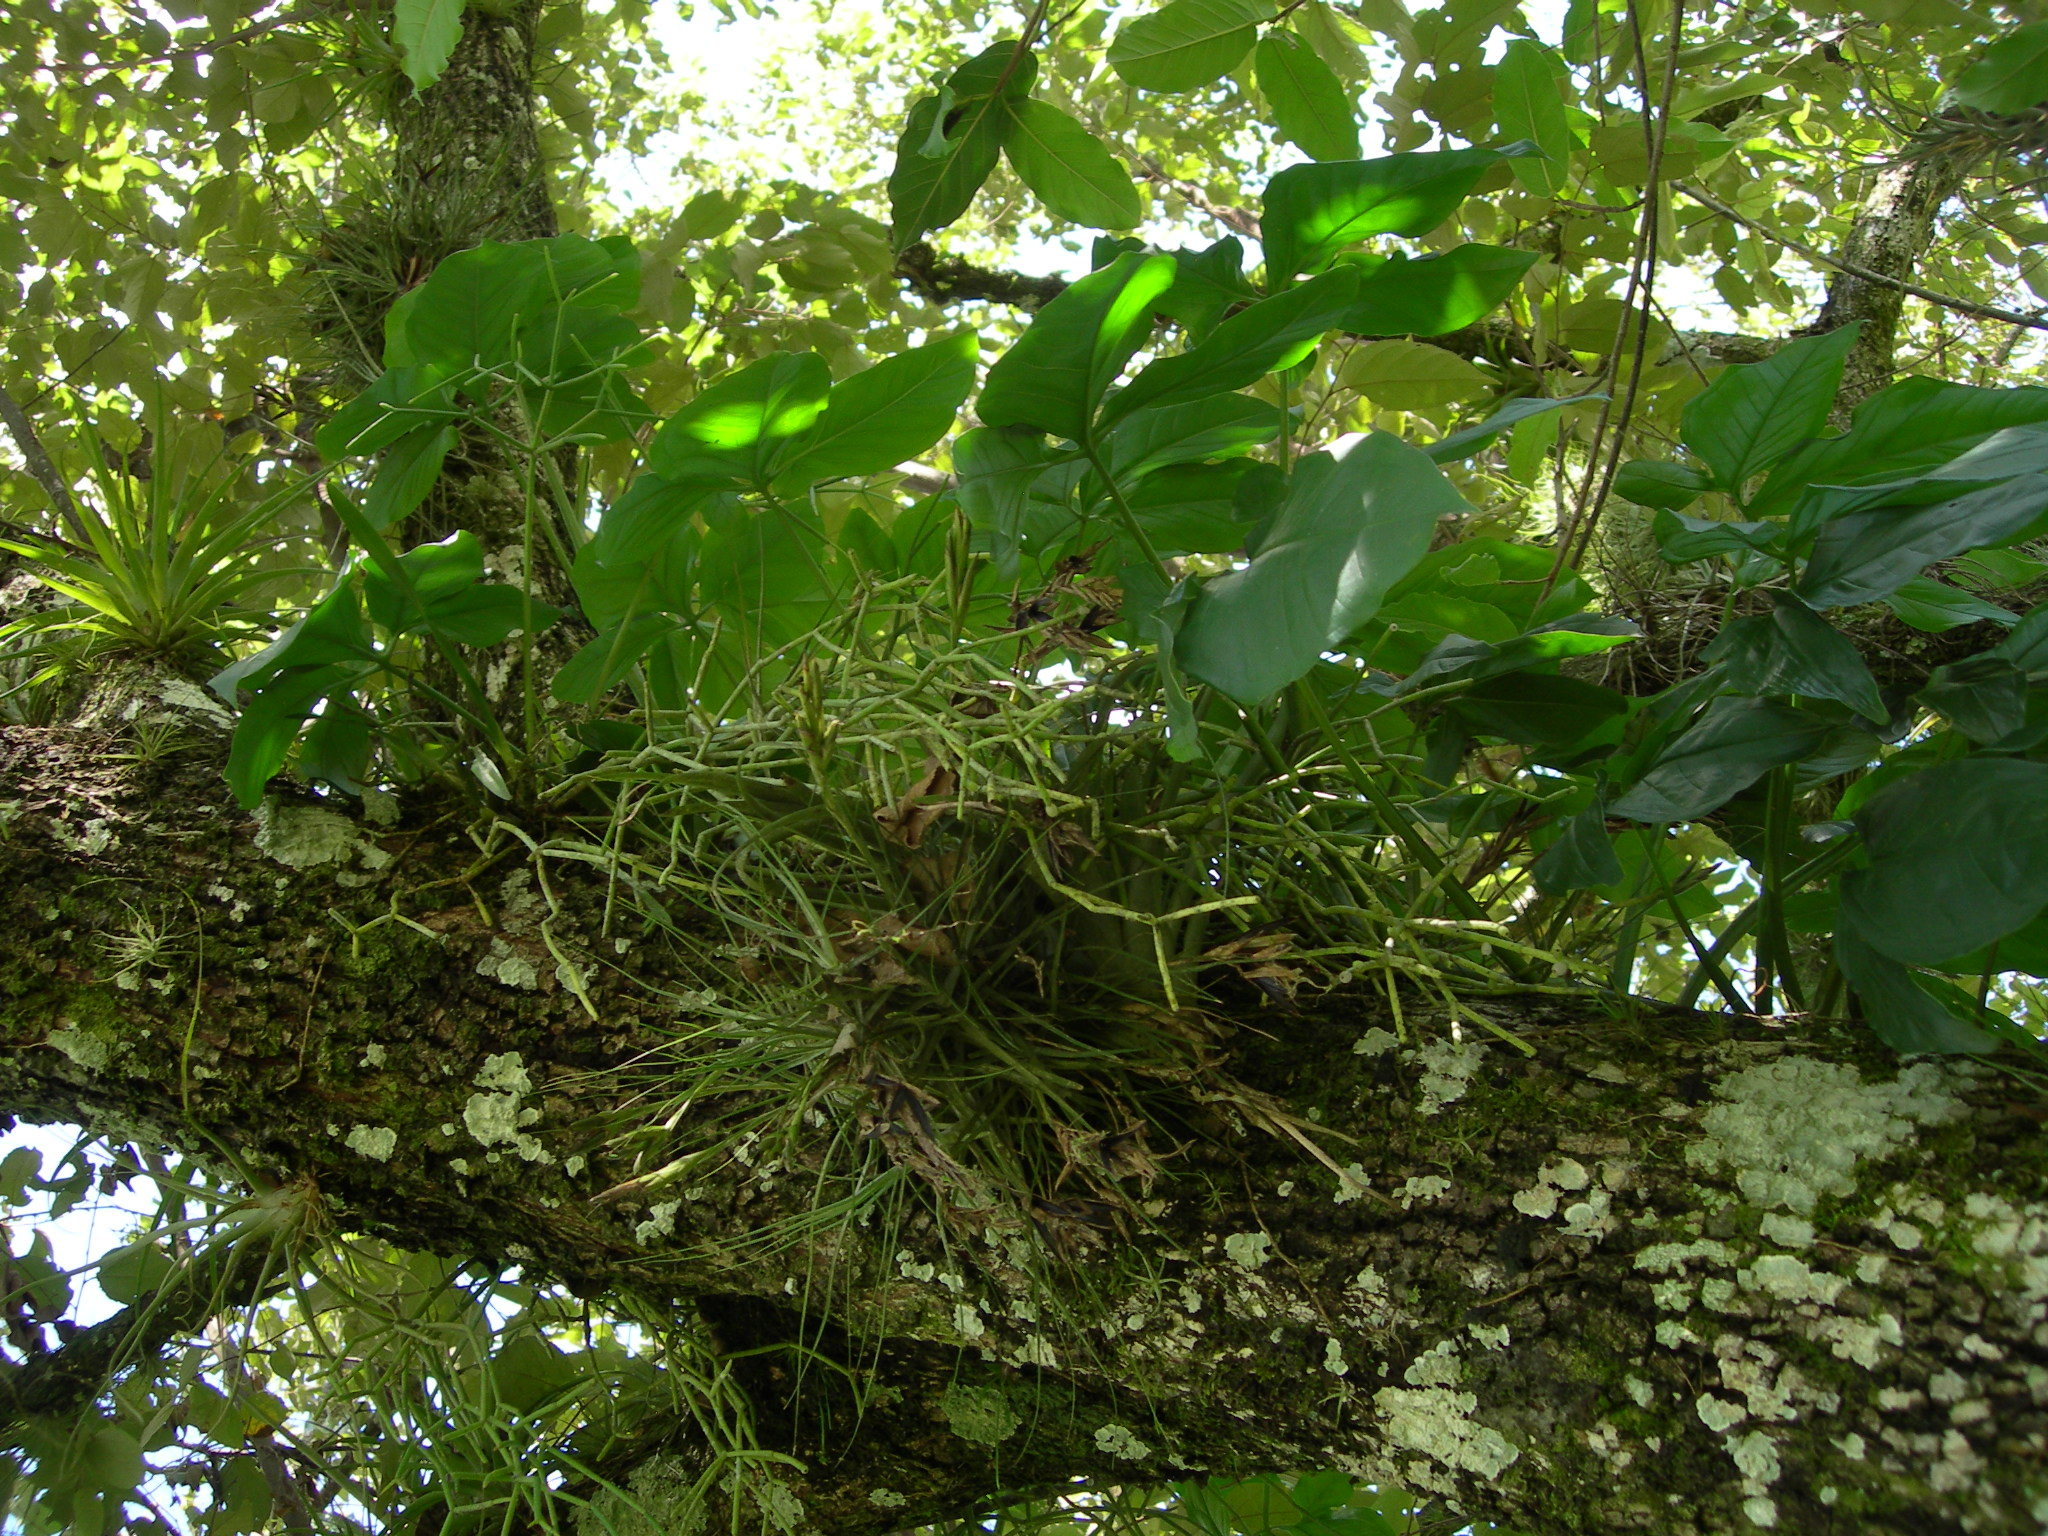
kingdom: Plantae
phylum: Tracheophyta
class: Magnoliopsida
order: Caryophyllales
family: Cactaceae
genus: Rhipsalis
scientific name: Rhipsalis baccifera
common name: Mistletoe cactus
